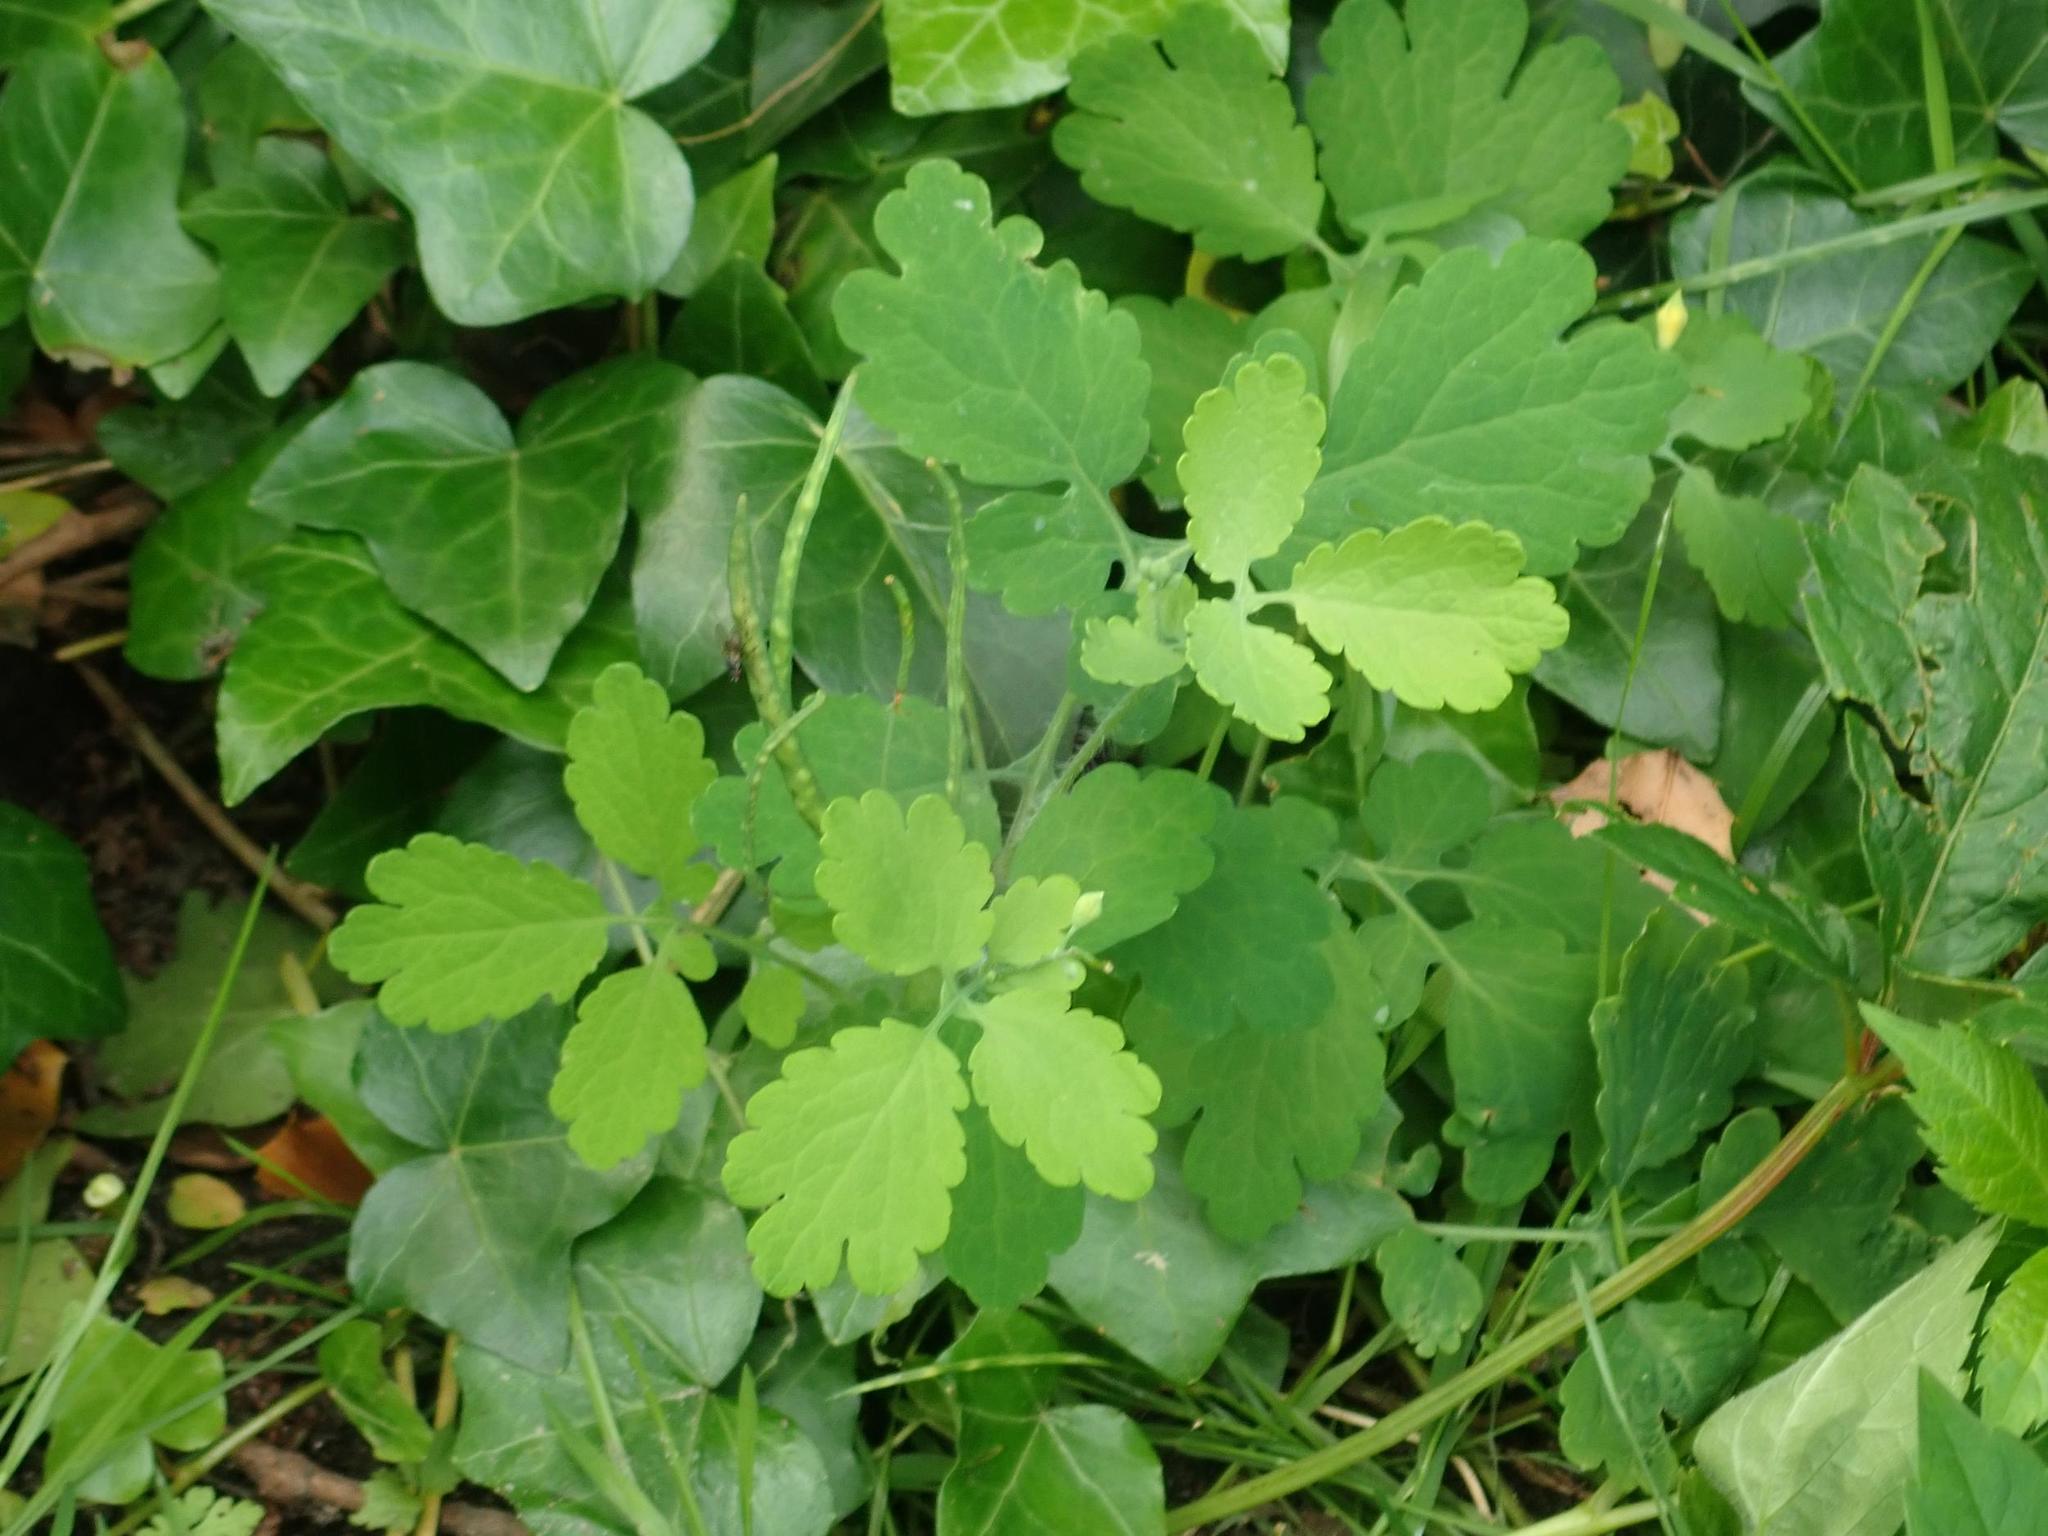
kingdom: Plantae
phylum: Tracheophyta
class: Magnoliopsida
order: Ranunculales
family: Papaveraceae
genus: Chelidonium
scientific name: Chelidonium majus
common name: Greater celandine
